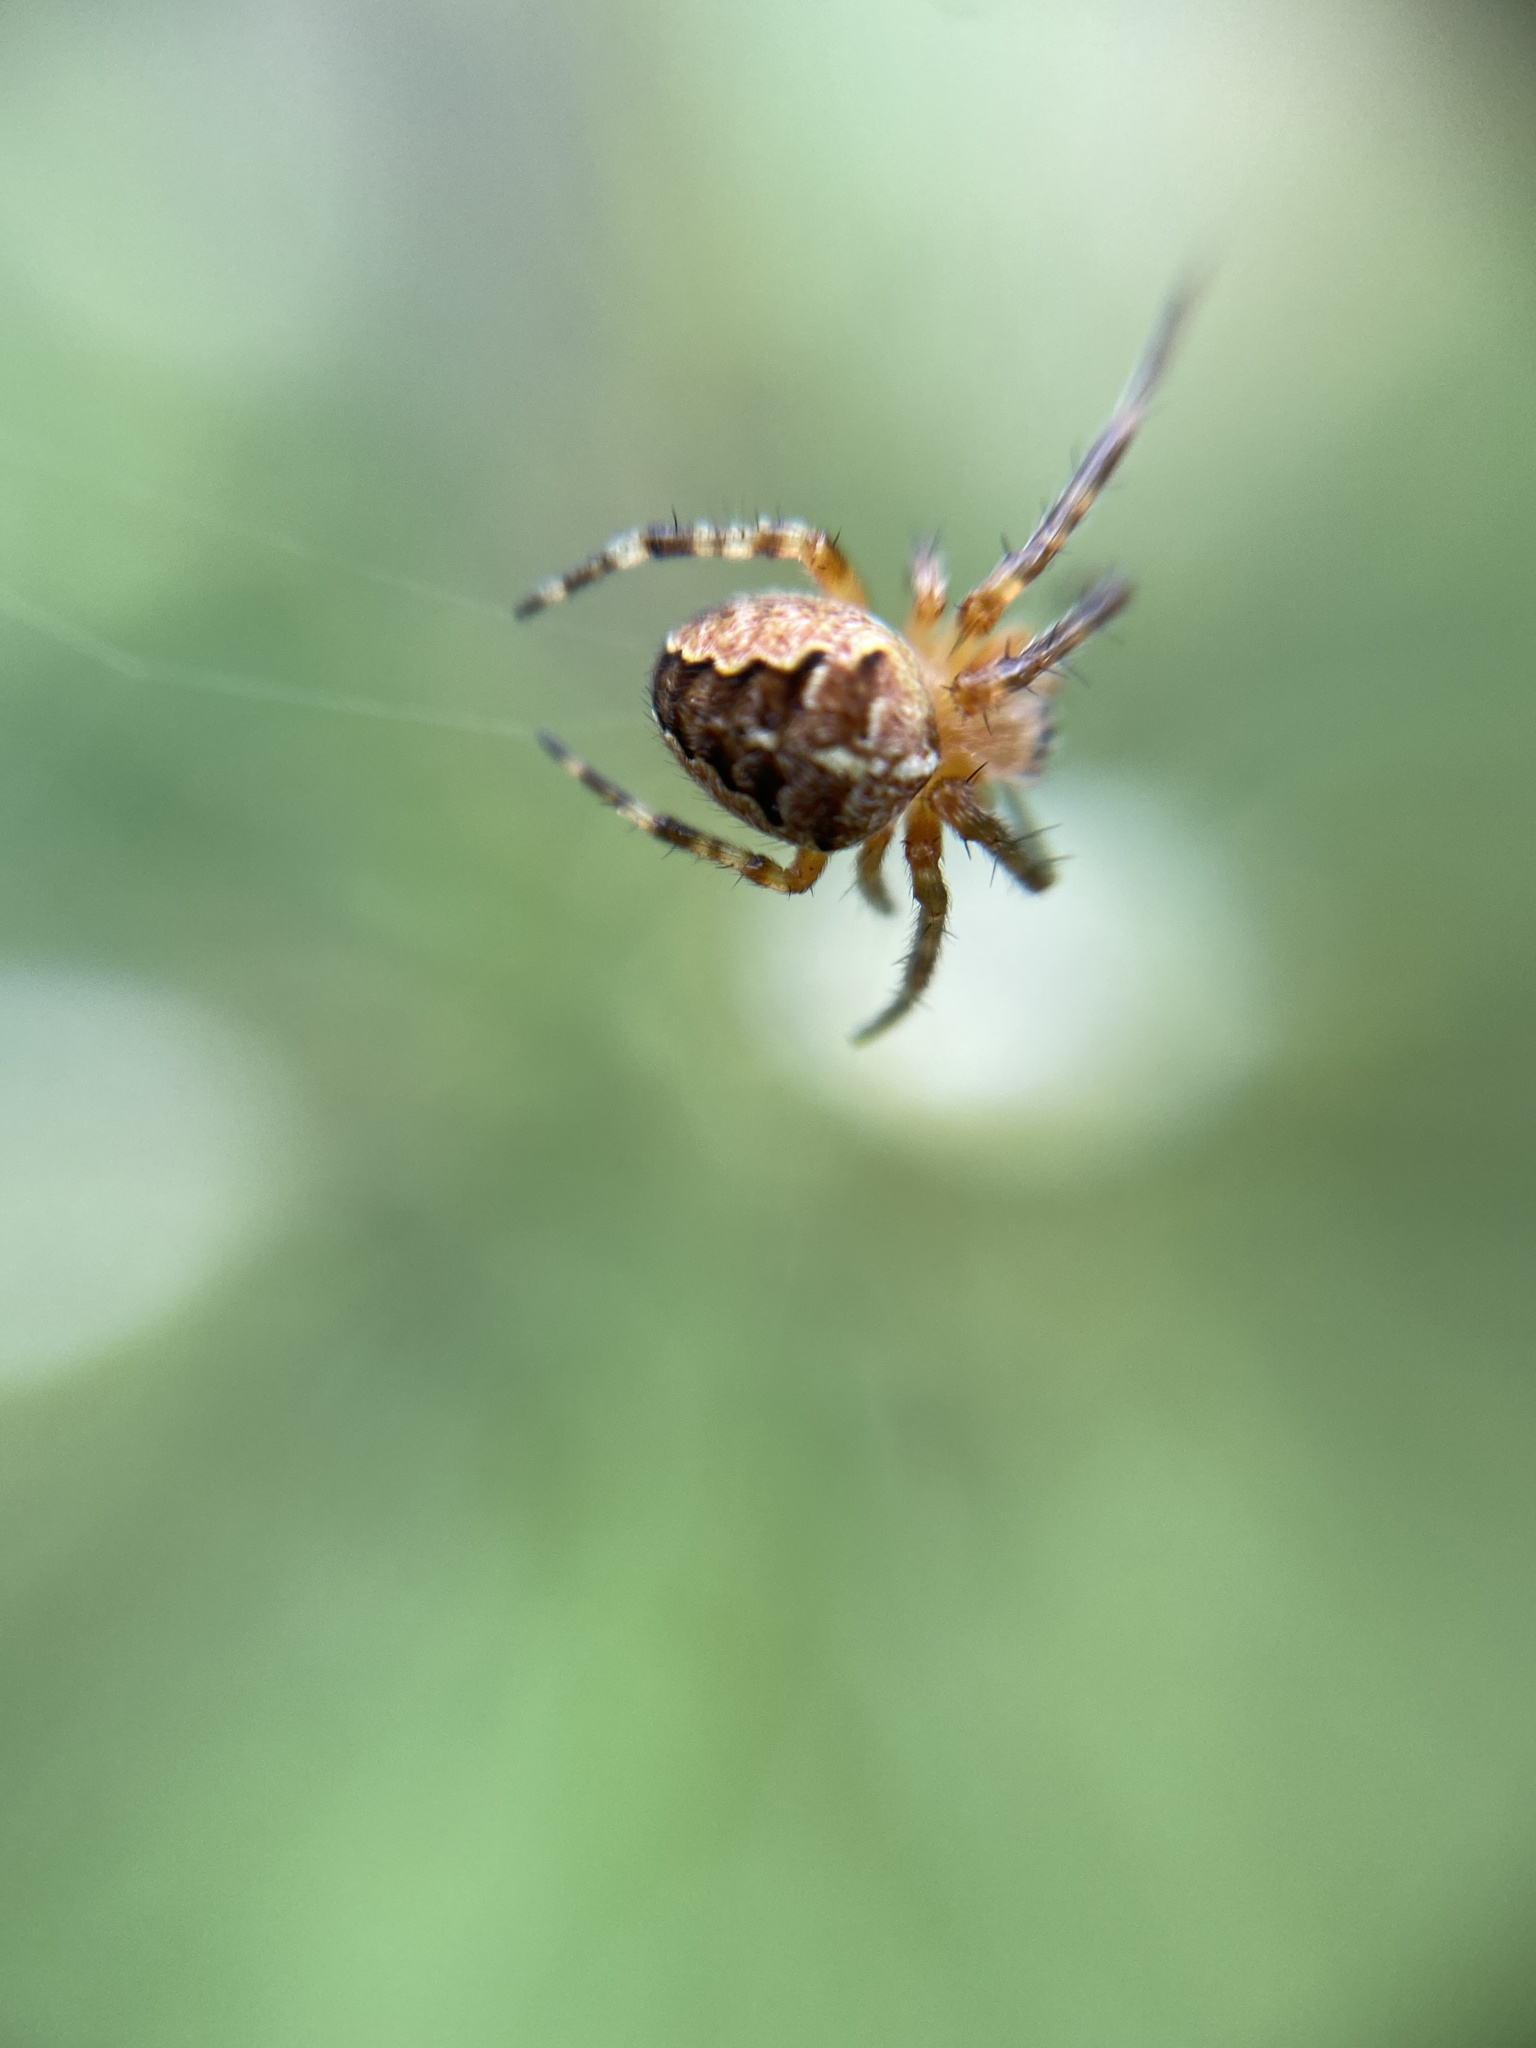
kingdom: Animalia
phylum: Arthropoda
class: Arachnida
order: Araneae
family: Araneidae
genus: Araneus
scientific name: Araneus diadematus
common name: Cross orbweaver
